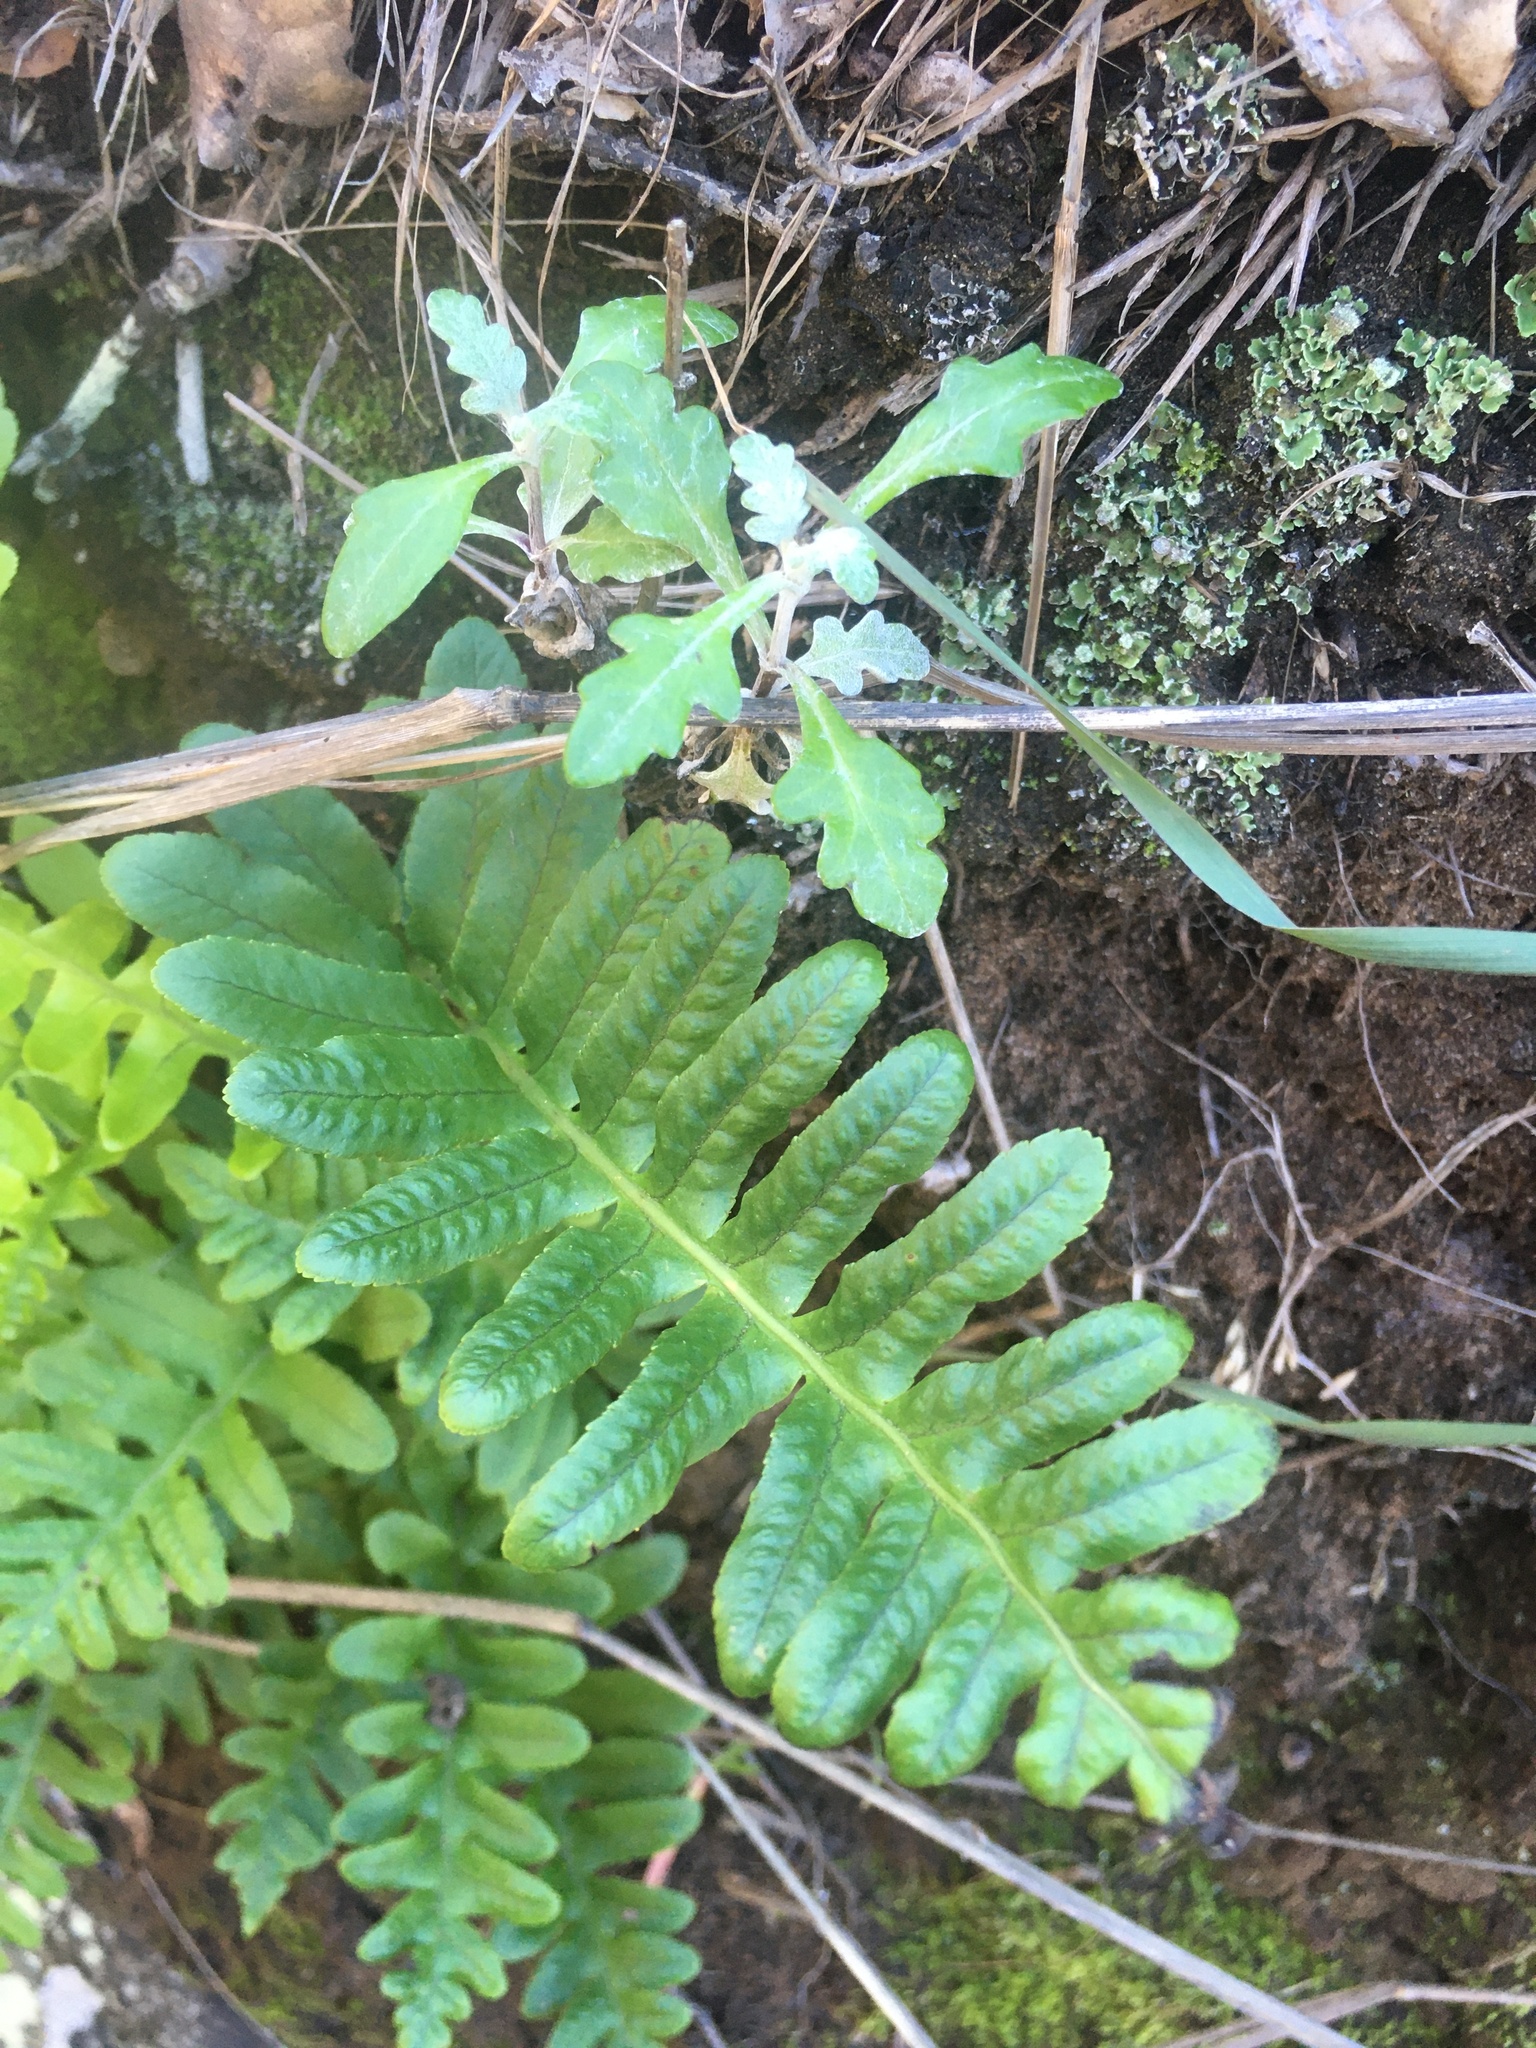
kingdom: Plantae
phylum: Tracheophyta
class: Polypodiopsida
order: Polypodiales
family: Polypodiaceae
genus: Polypodium
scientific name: Polypodium californicum
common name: California polypody
